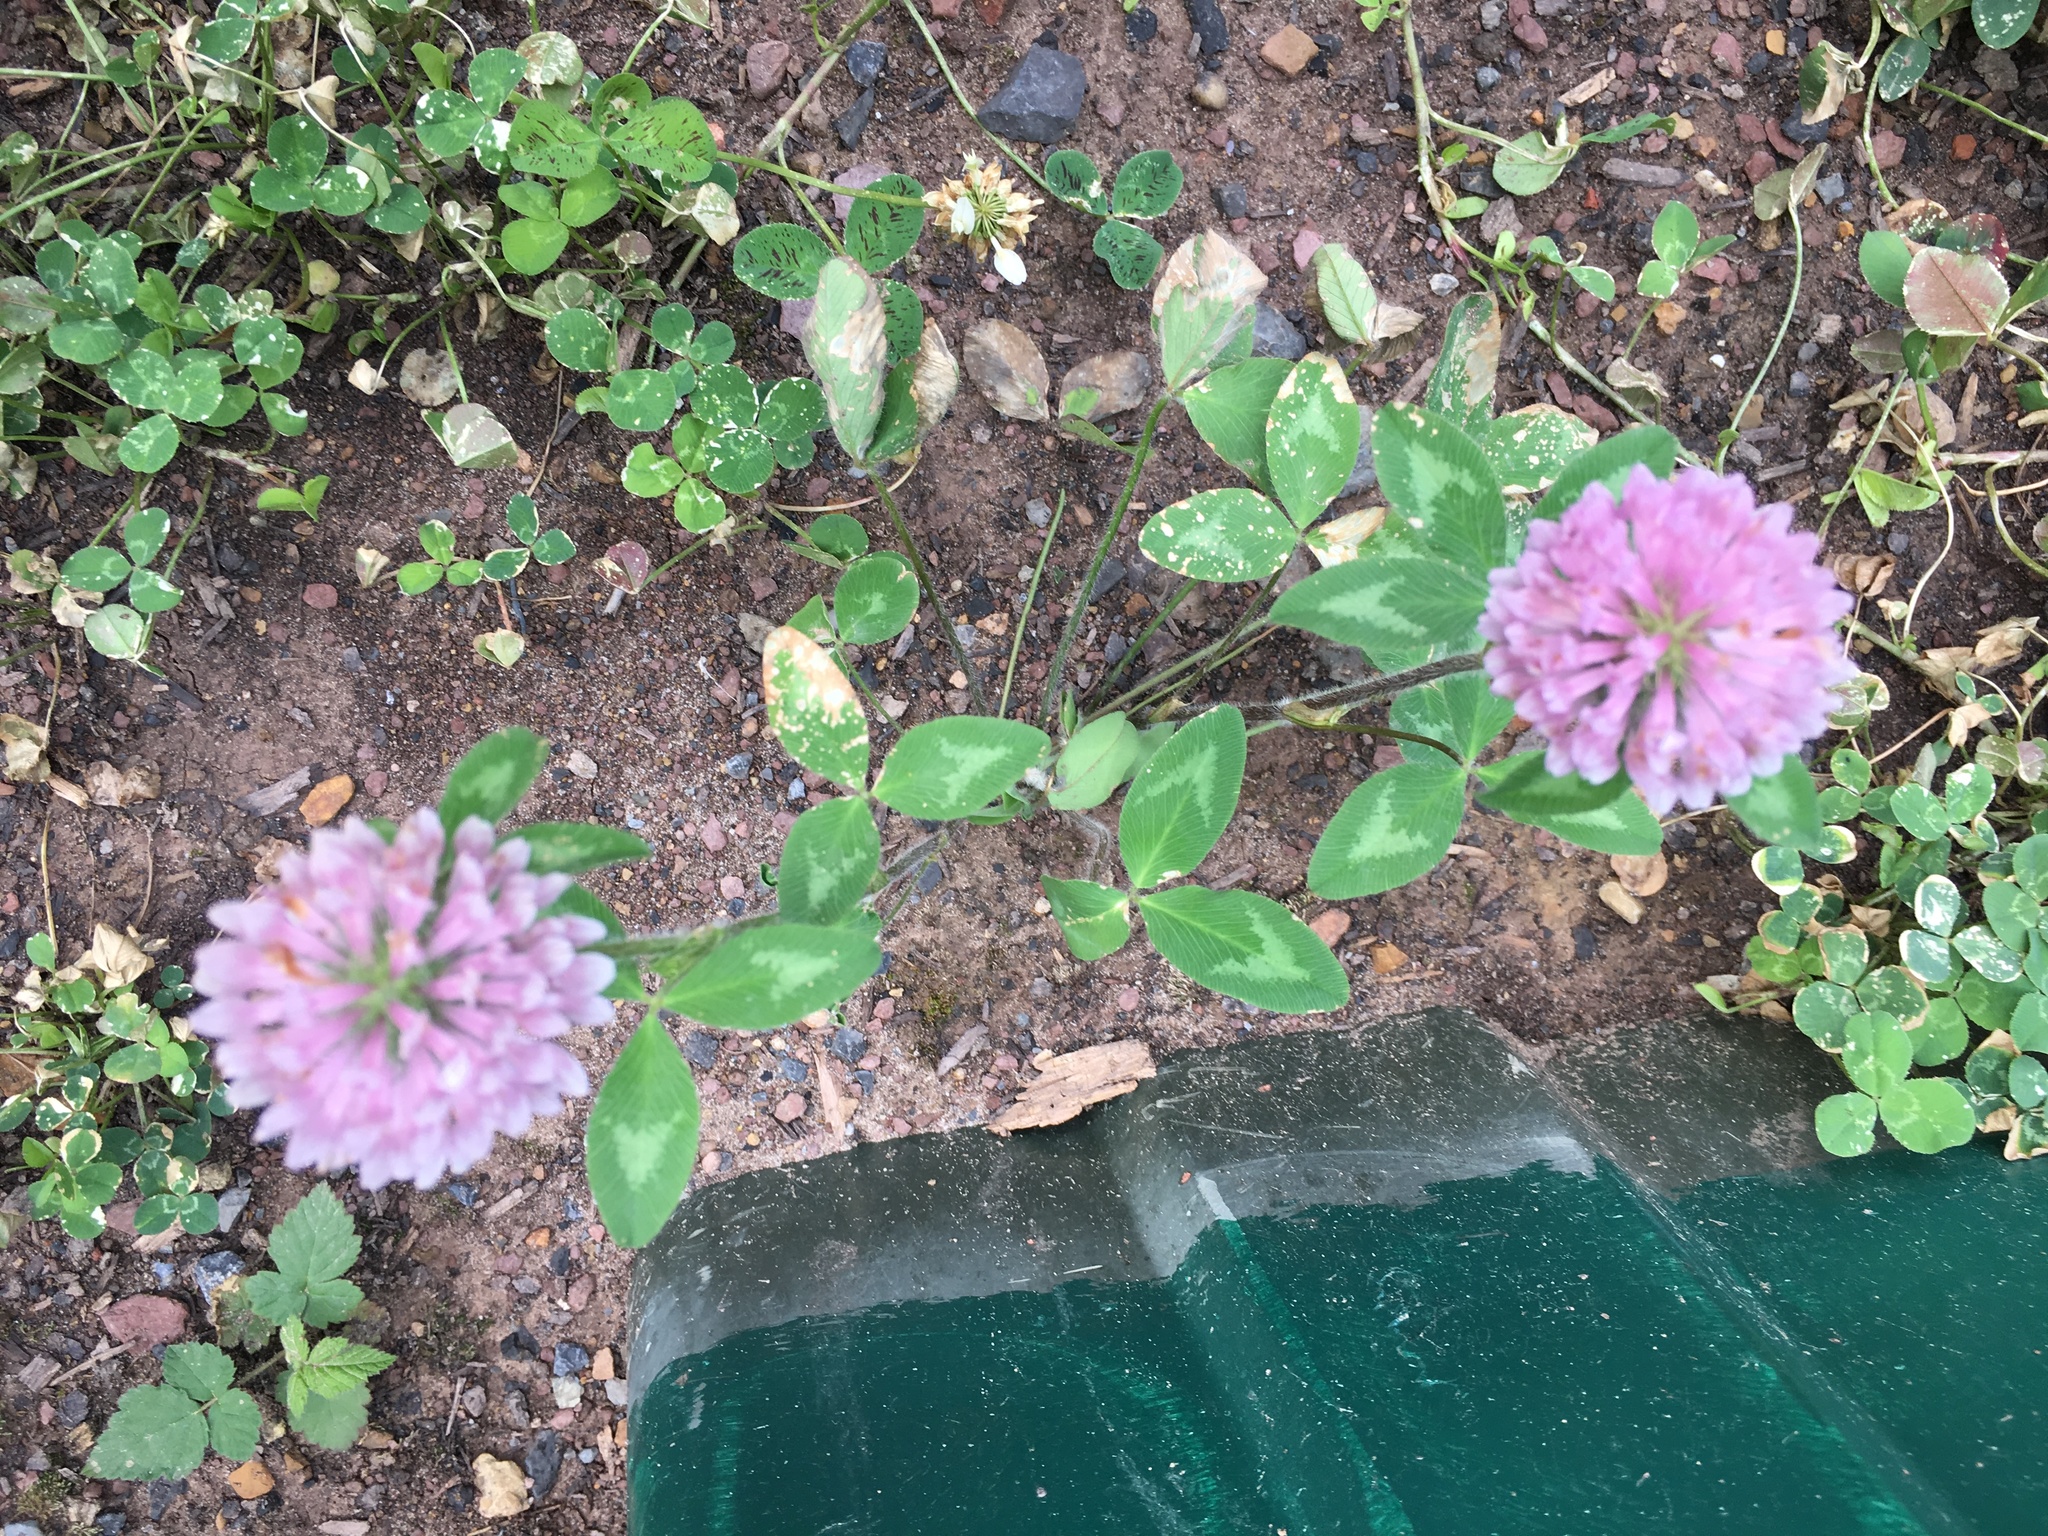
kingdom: Plantae
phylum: Tracheophyta
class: Magnoliopsida
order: Fabales
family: Fabaceae
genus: Trifolium
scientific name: Trifolium pratense
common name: Red clover
